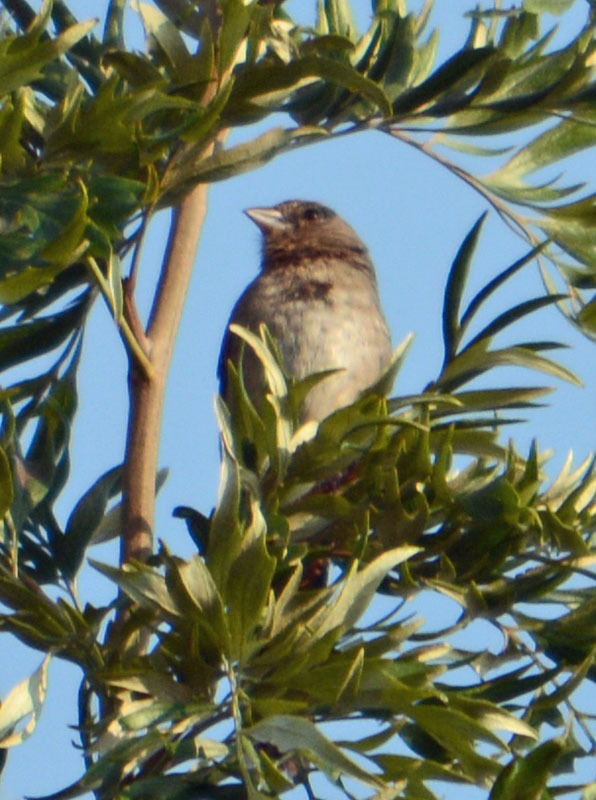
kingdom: Animalia
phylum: Chordata
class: Aves
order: Passeriformes
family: Passerellidae
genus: Melozone
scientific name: Melozone fusca
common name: Canyon towhee
